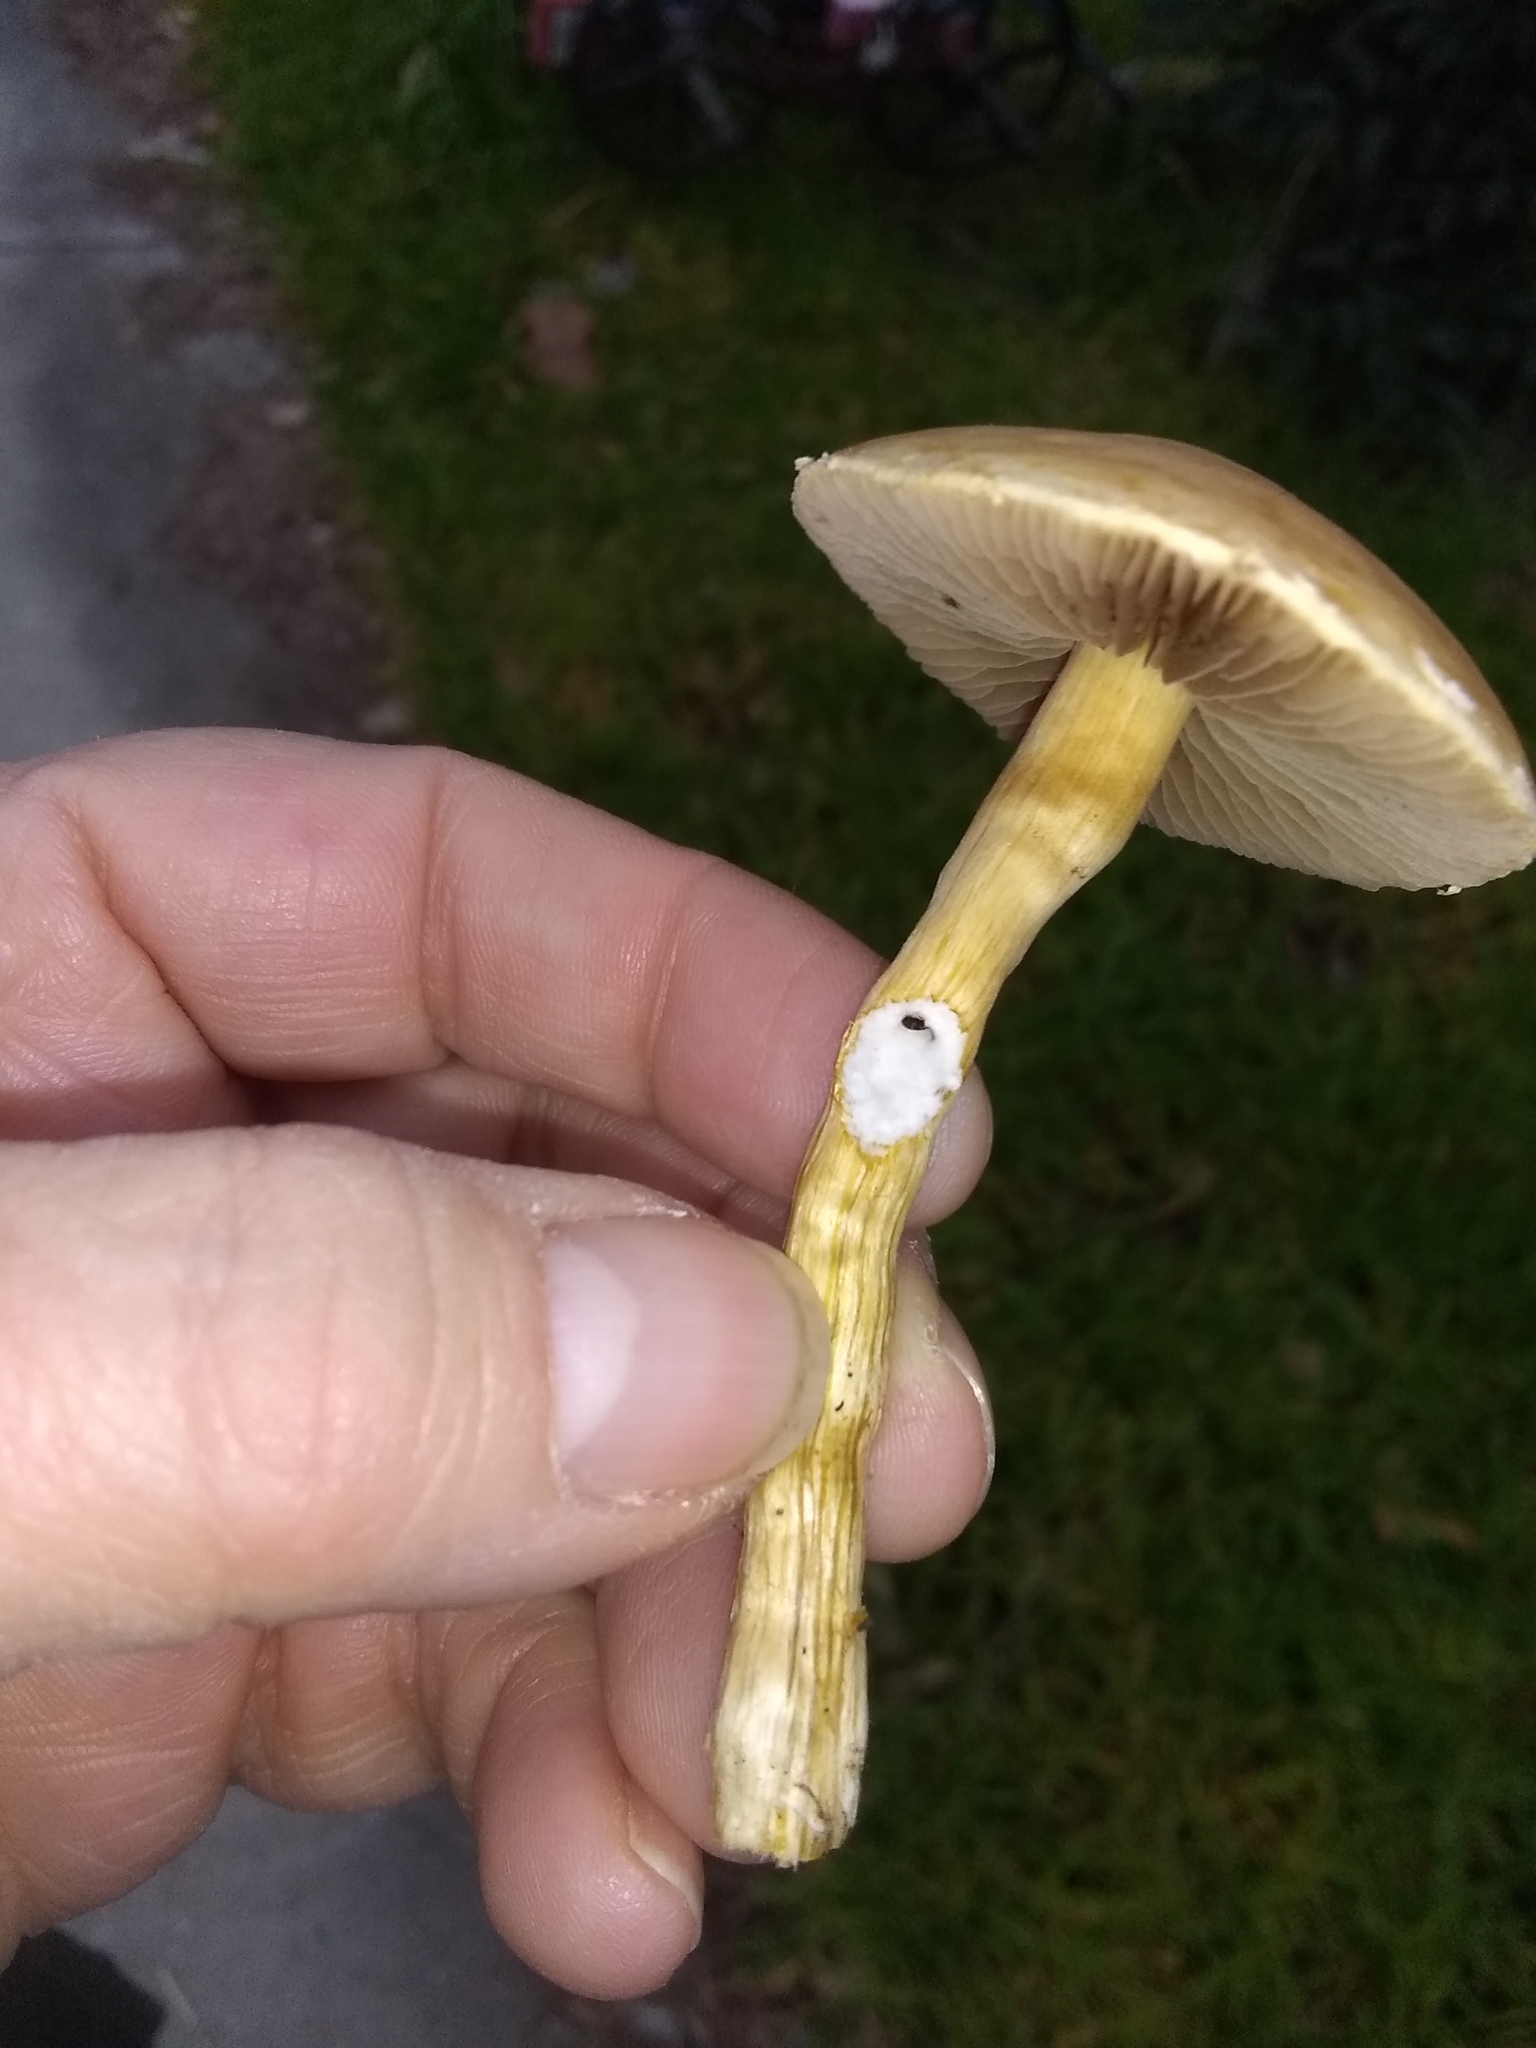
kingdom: Fungi
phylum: Basidiomycota
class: Agaricomycetes
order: Agaricales
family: Strophariaceae
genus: Agrocybe
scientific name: Agrocybe putaminum
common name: Mulch fieldcap
